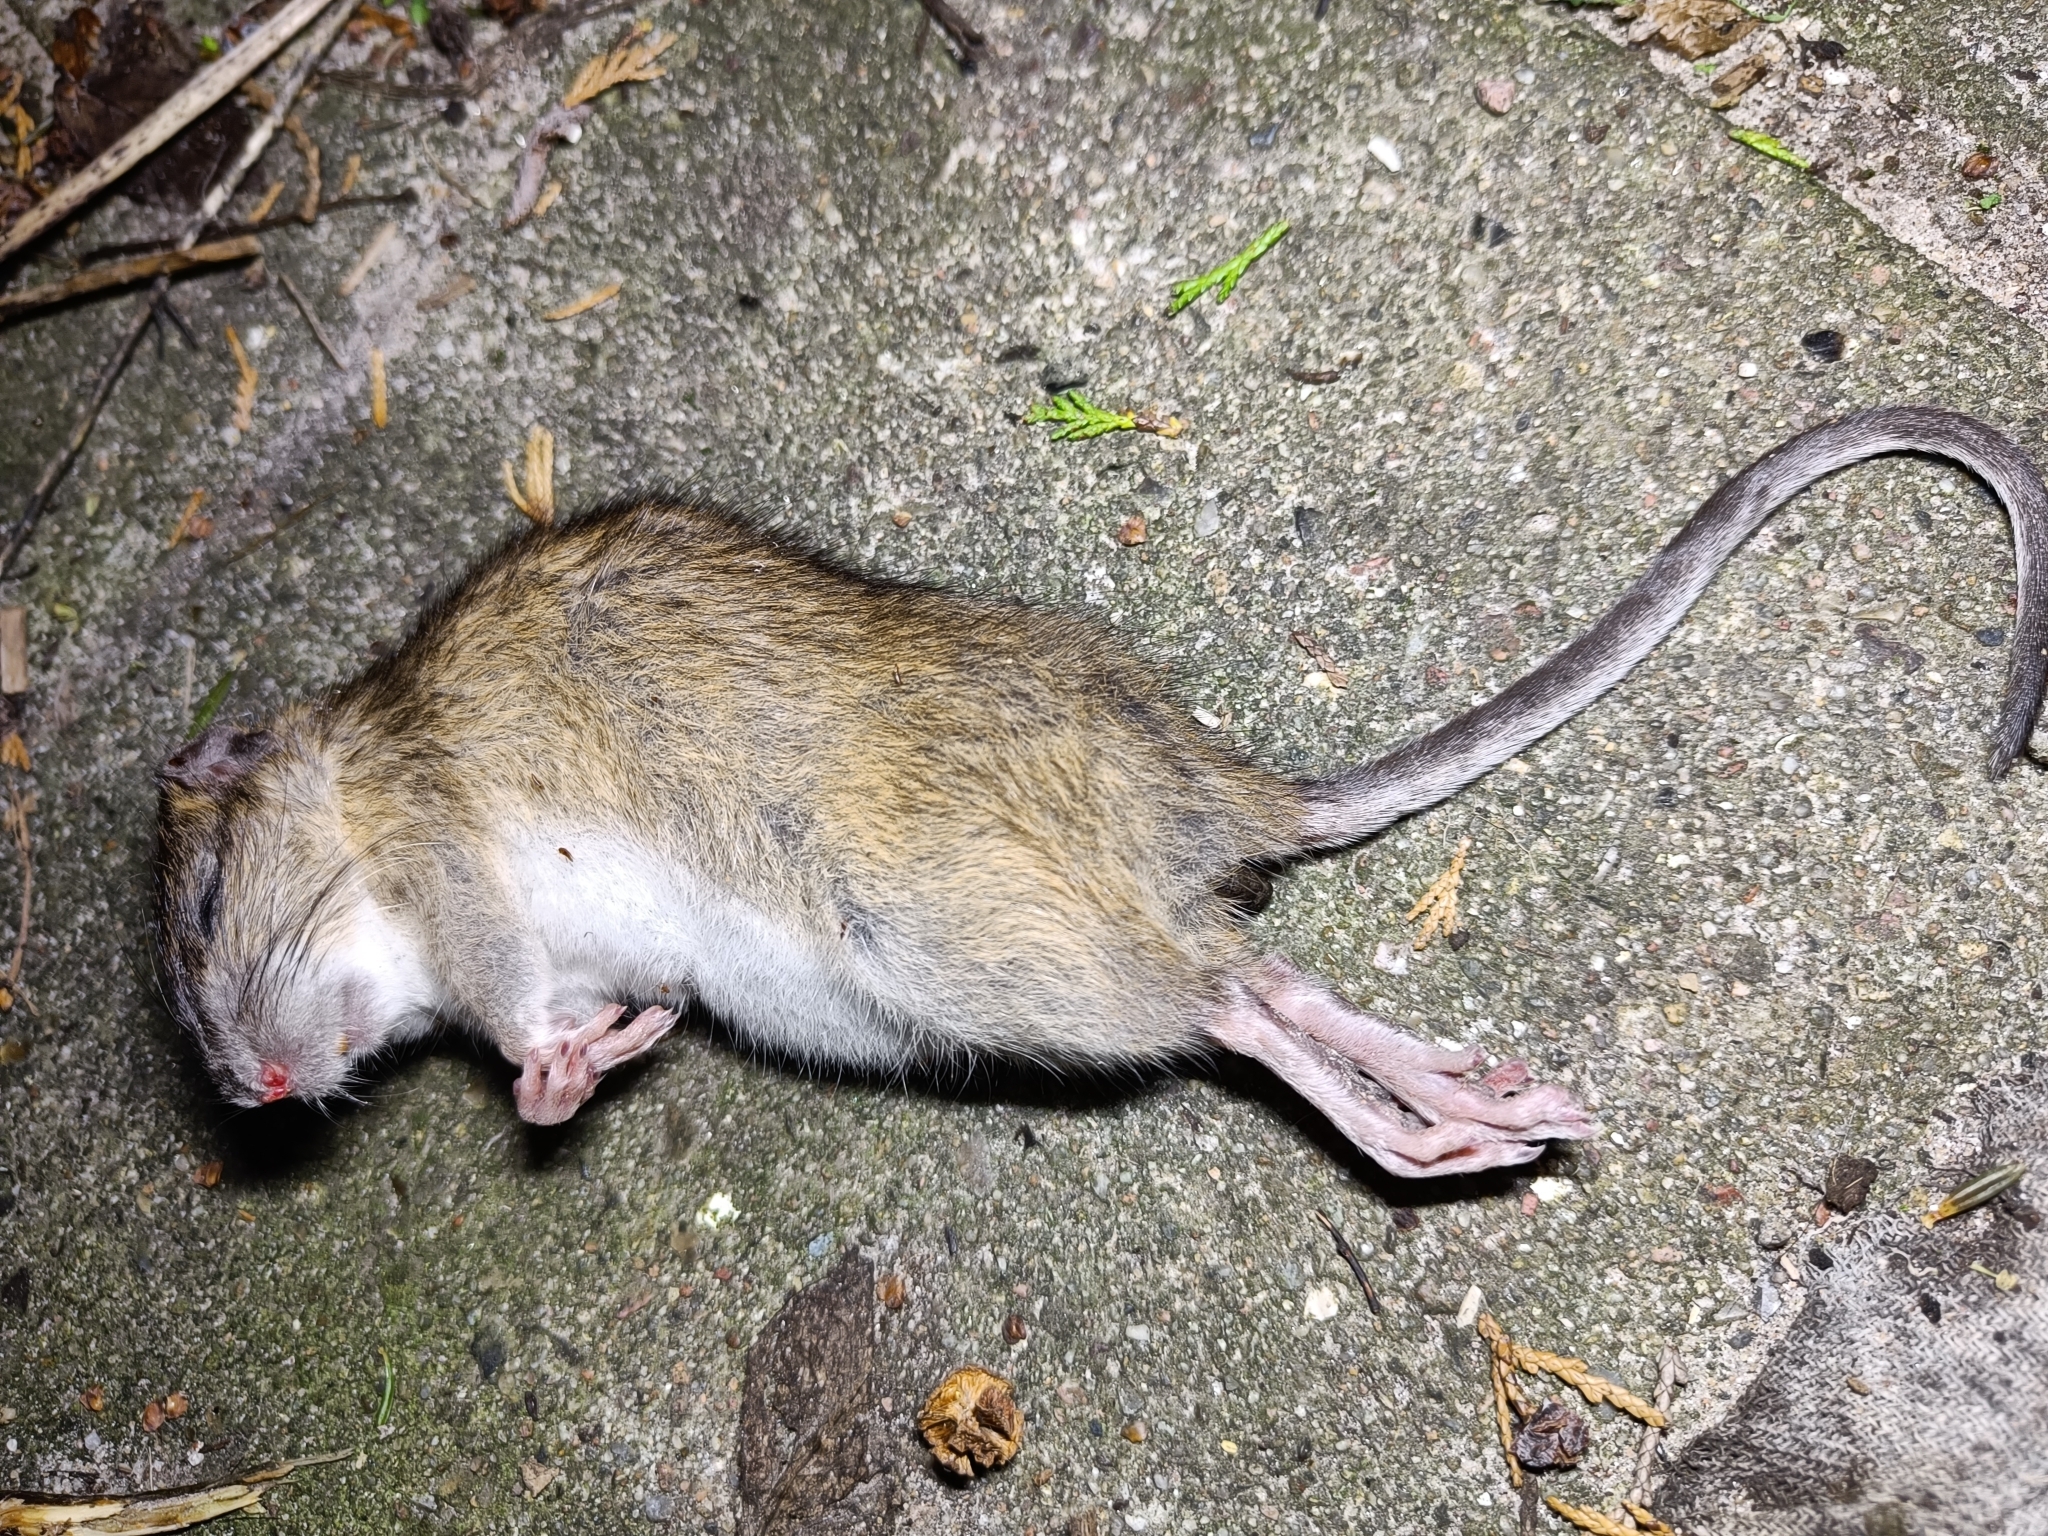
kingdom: Animalia
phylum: Chordata
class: Mammalia
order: Rodentia
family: Muridae
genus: Rattus
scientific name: Rattus norvegicus
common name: Brown rat
